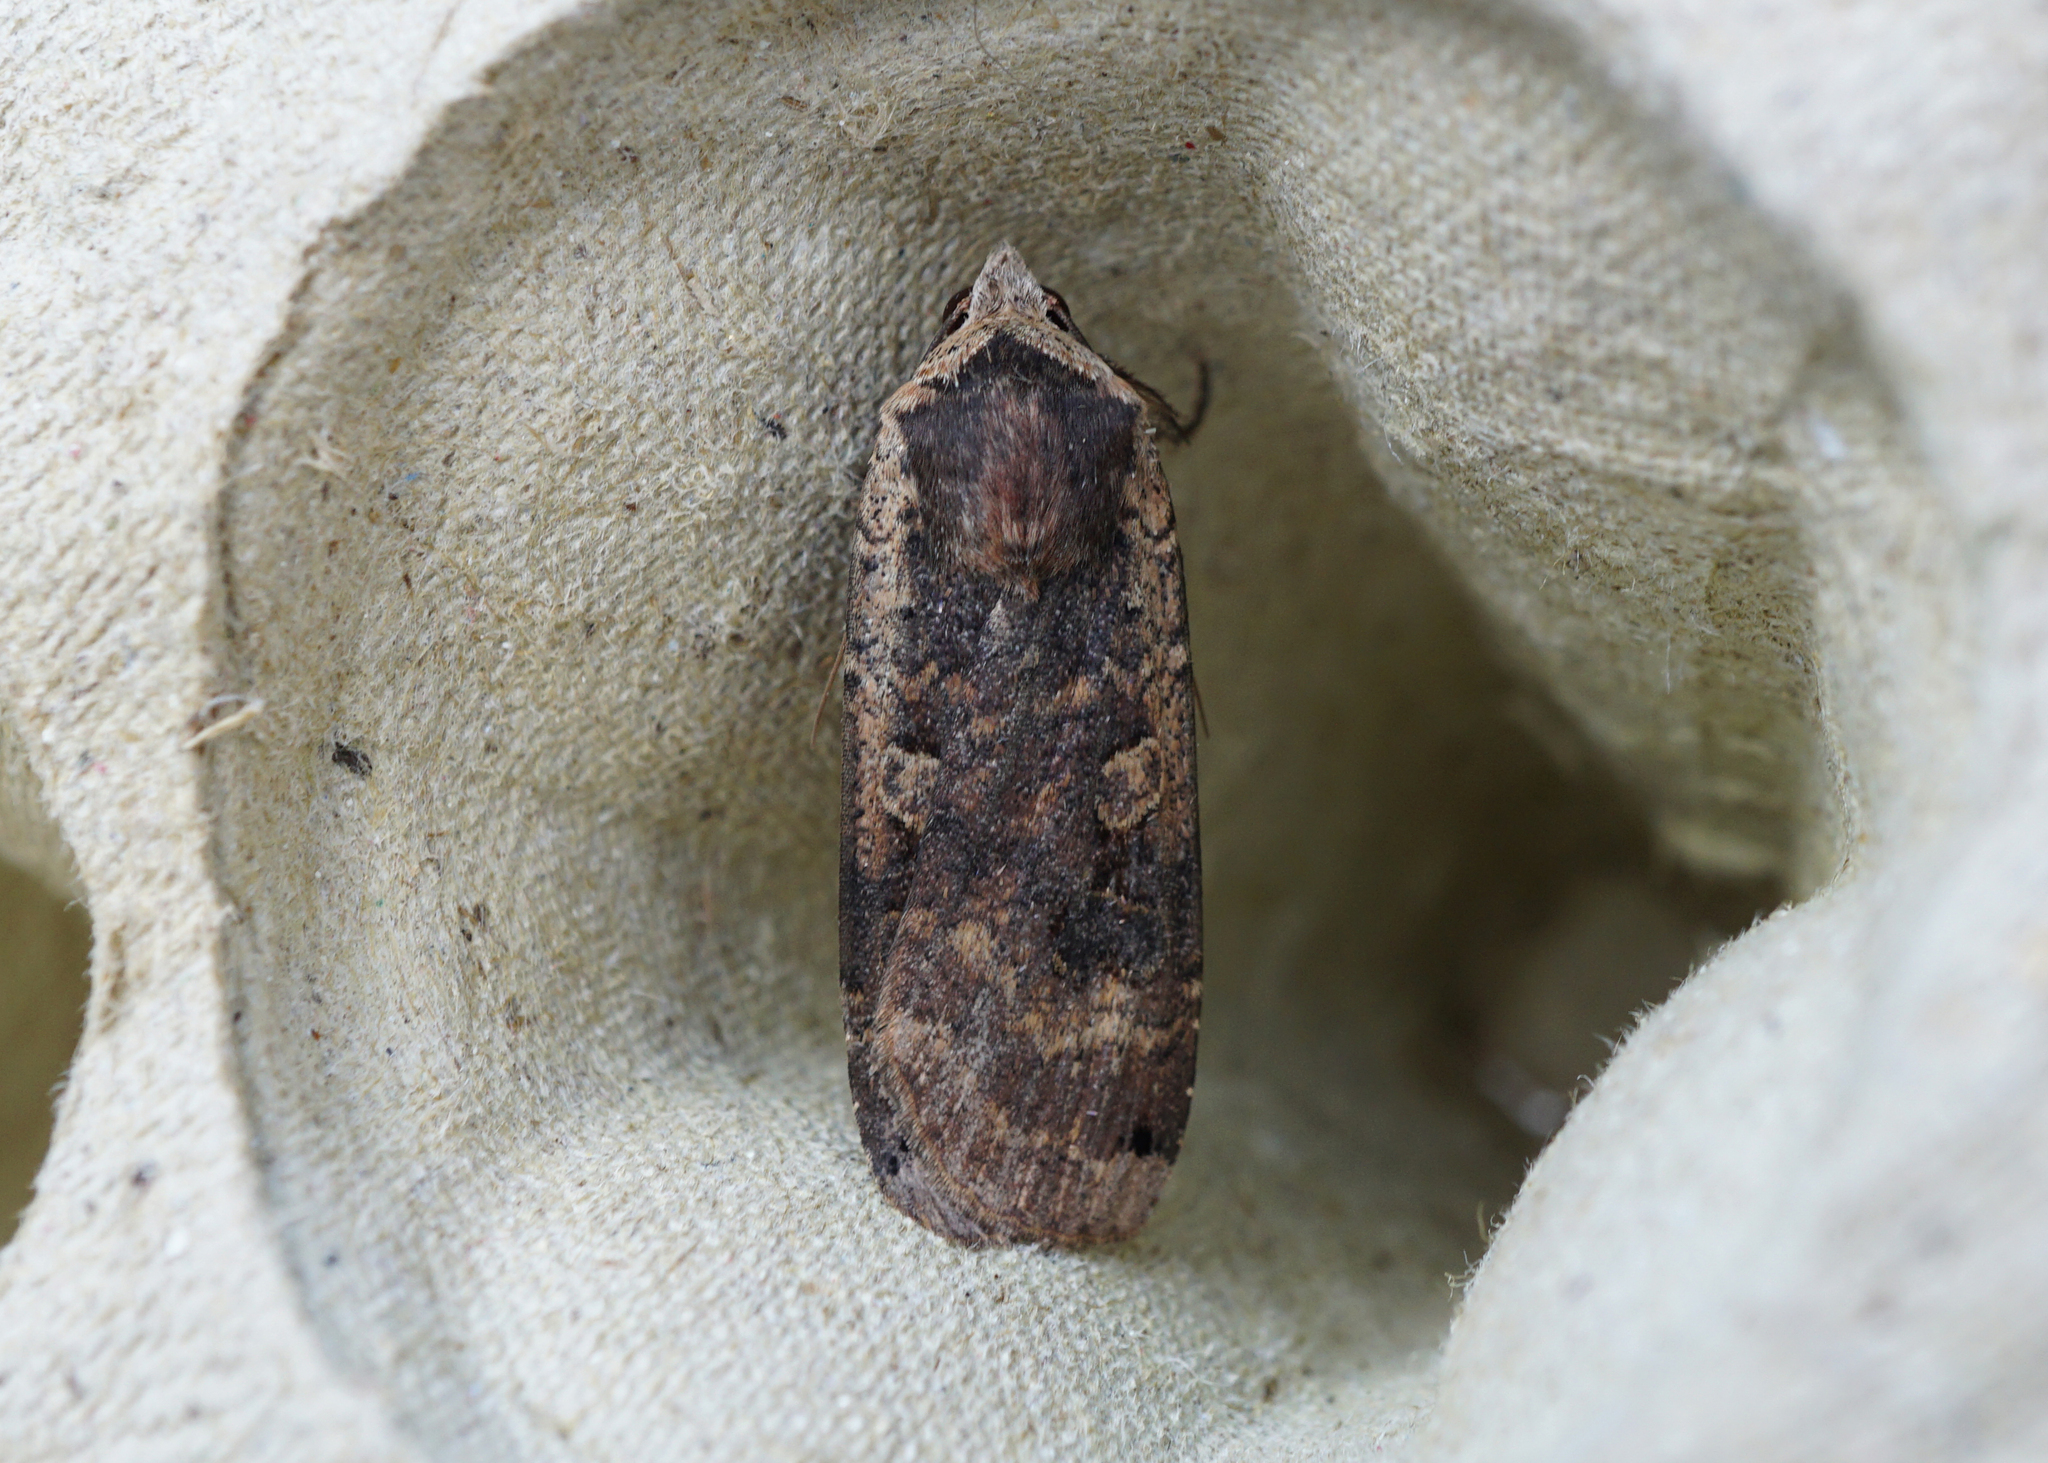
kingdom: Animalia
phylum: Arthropoda
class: Insecta
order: Lepidoptera
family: Noctuidae
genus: Noctua
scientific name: Noctua pronuba
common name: Large yellow underwing
